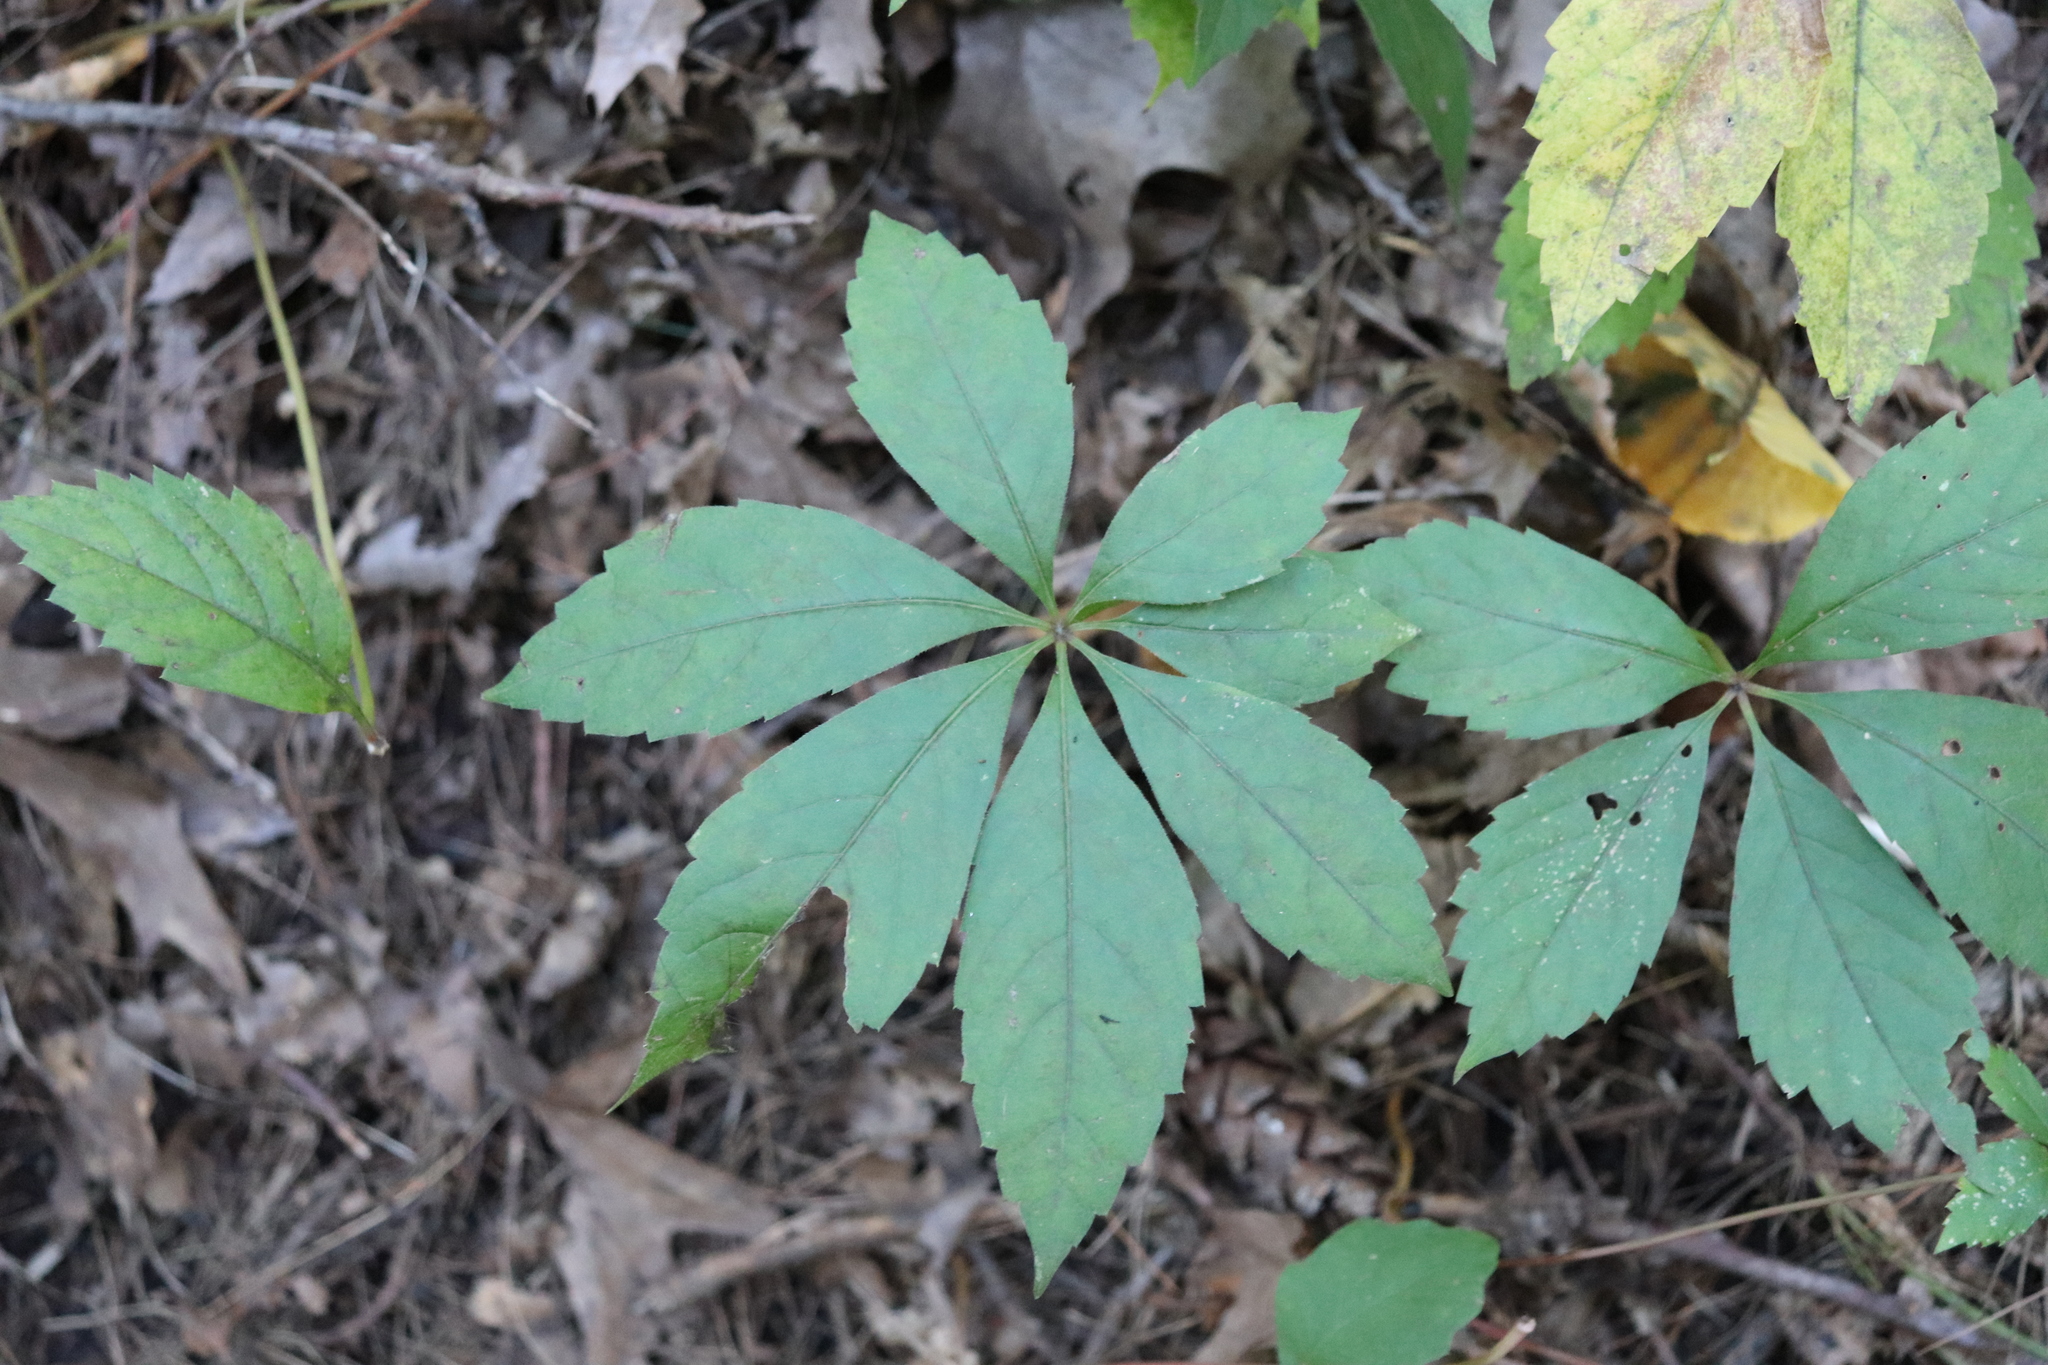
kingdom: Plantae
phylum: Tracheophyta
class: Magnoliopsida
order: Vitales
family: Vitaceae
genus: Parthenocissus
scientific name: Parthenocissus quinquefolia
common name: Virginia-creeper
